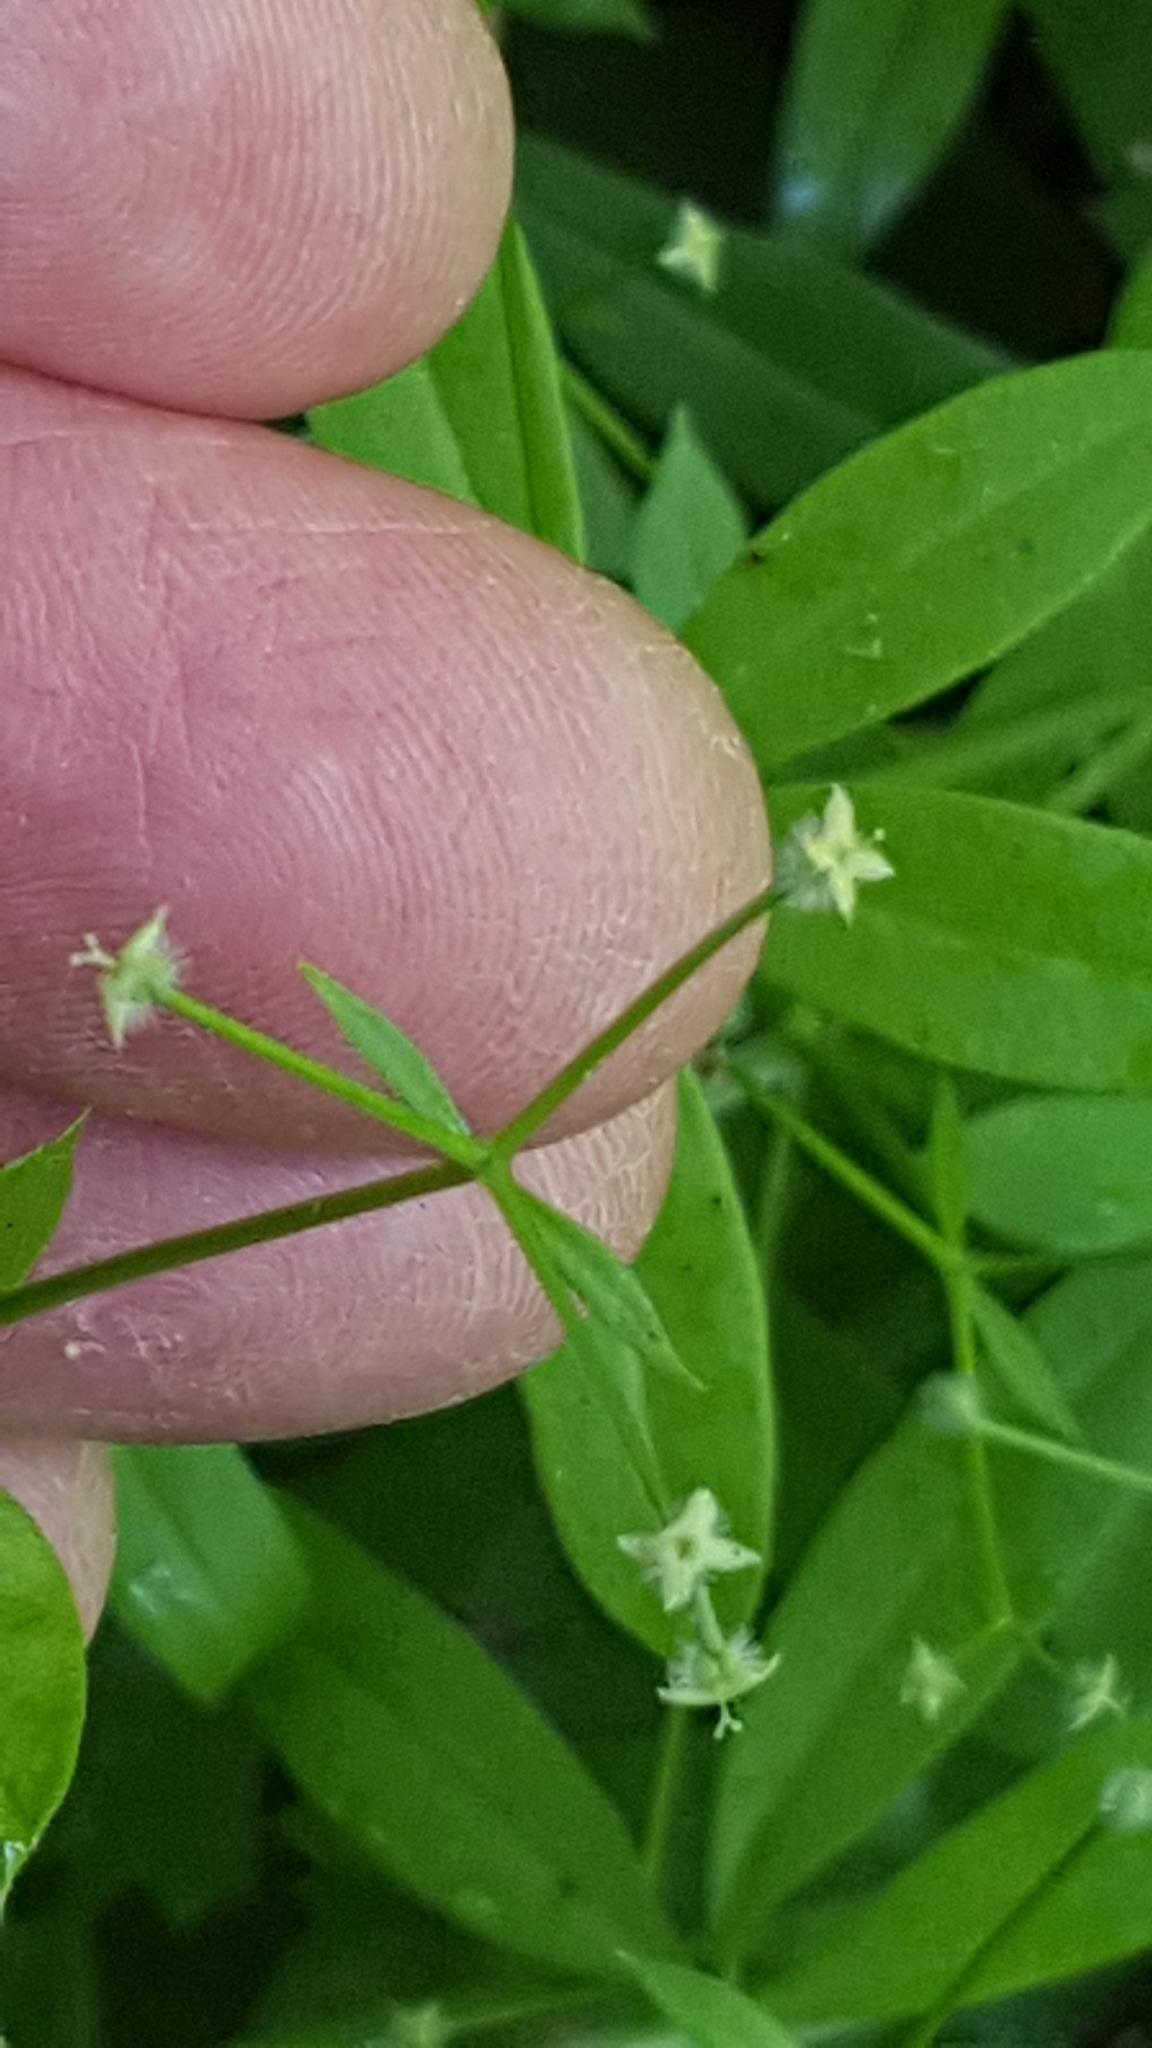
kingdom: Plantae
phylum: Tracheophyta
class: Magnoliopsida
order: Gentianales
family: Rubiaceae
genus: Galium
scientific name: Galium triflorum
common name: Fragrant bedstraw
